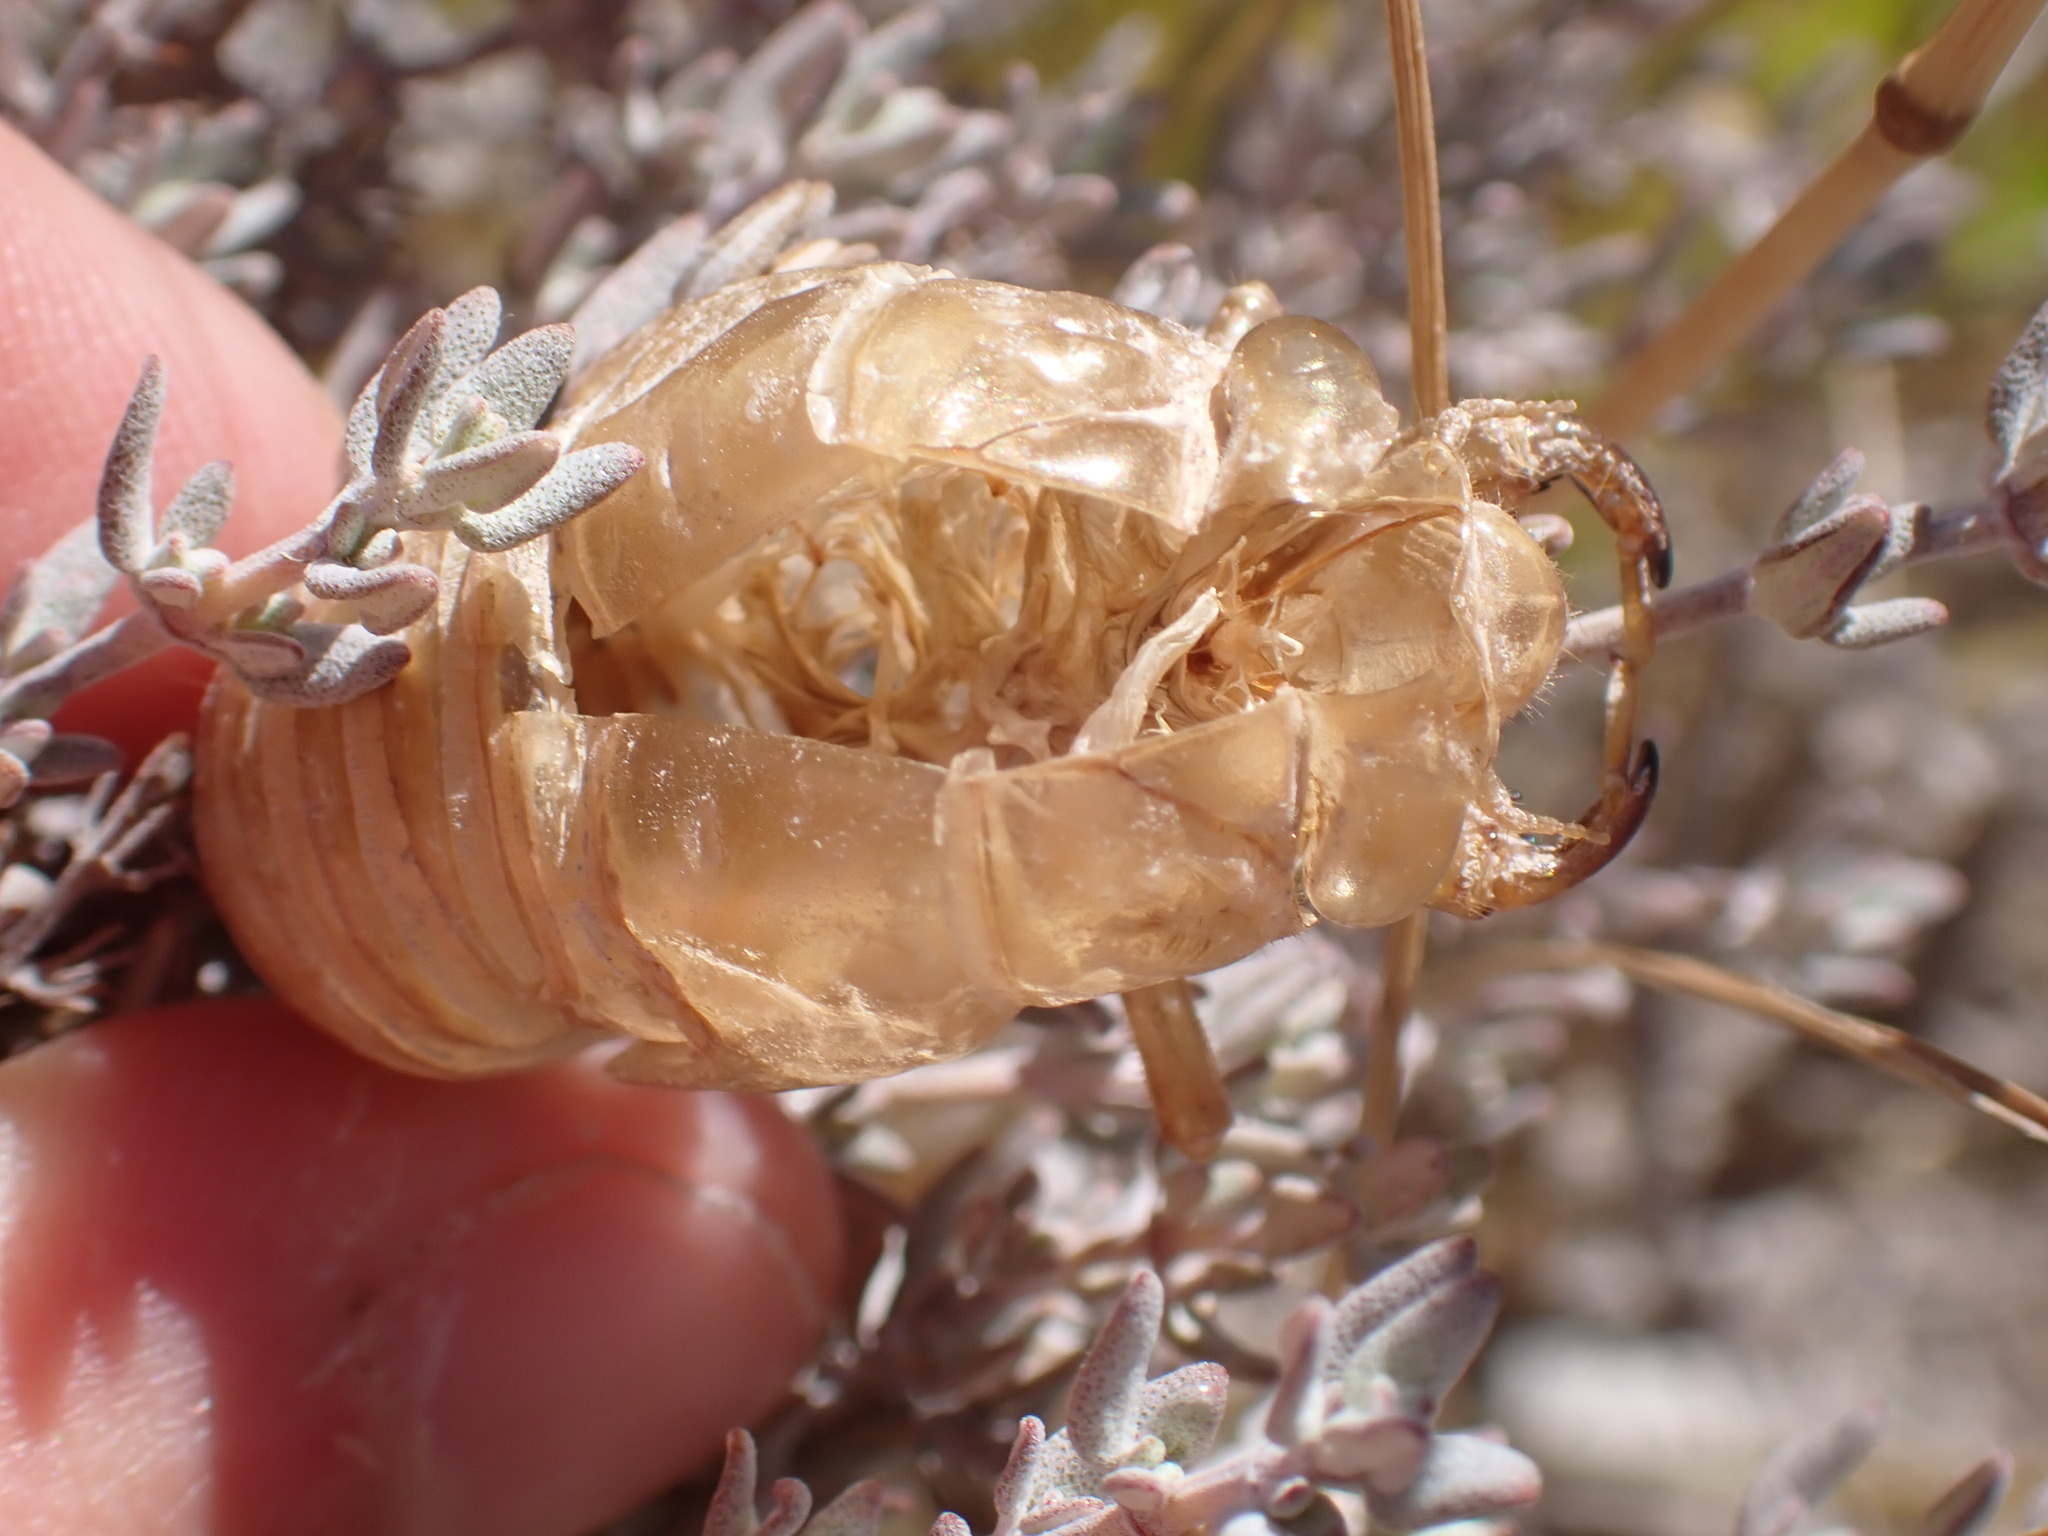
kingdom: Animalia
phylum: Arthropoda
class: Insecta
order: Hemiptera
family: Cicadidae
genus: Lyristes
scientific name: Lyristes plebejus
